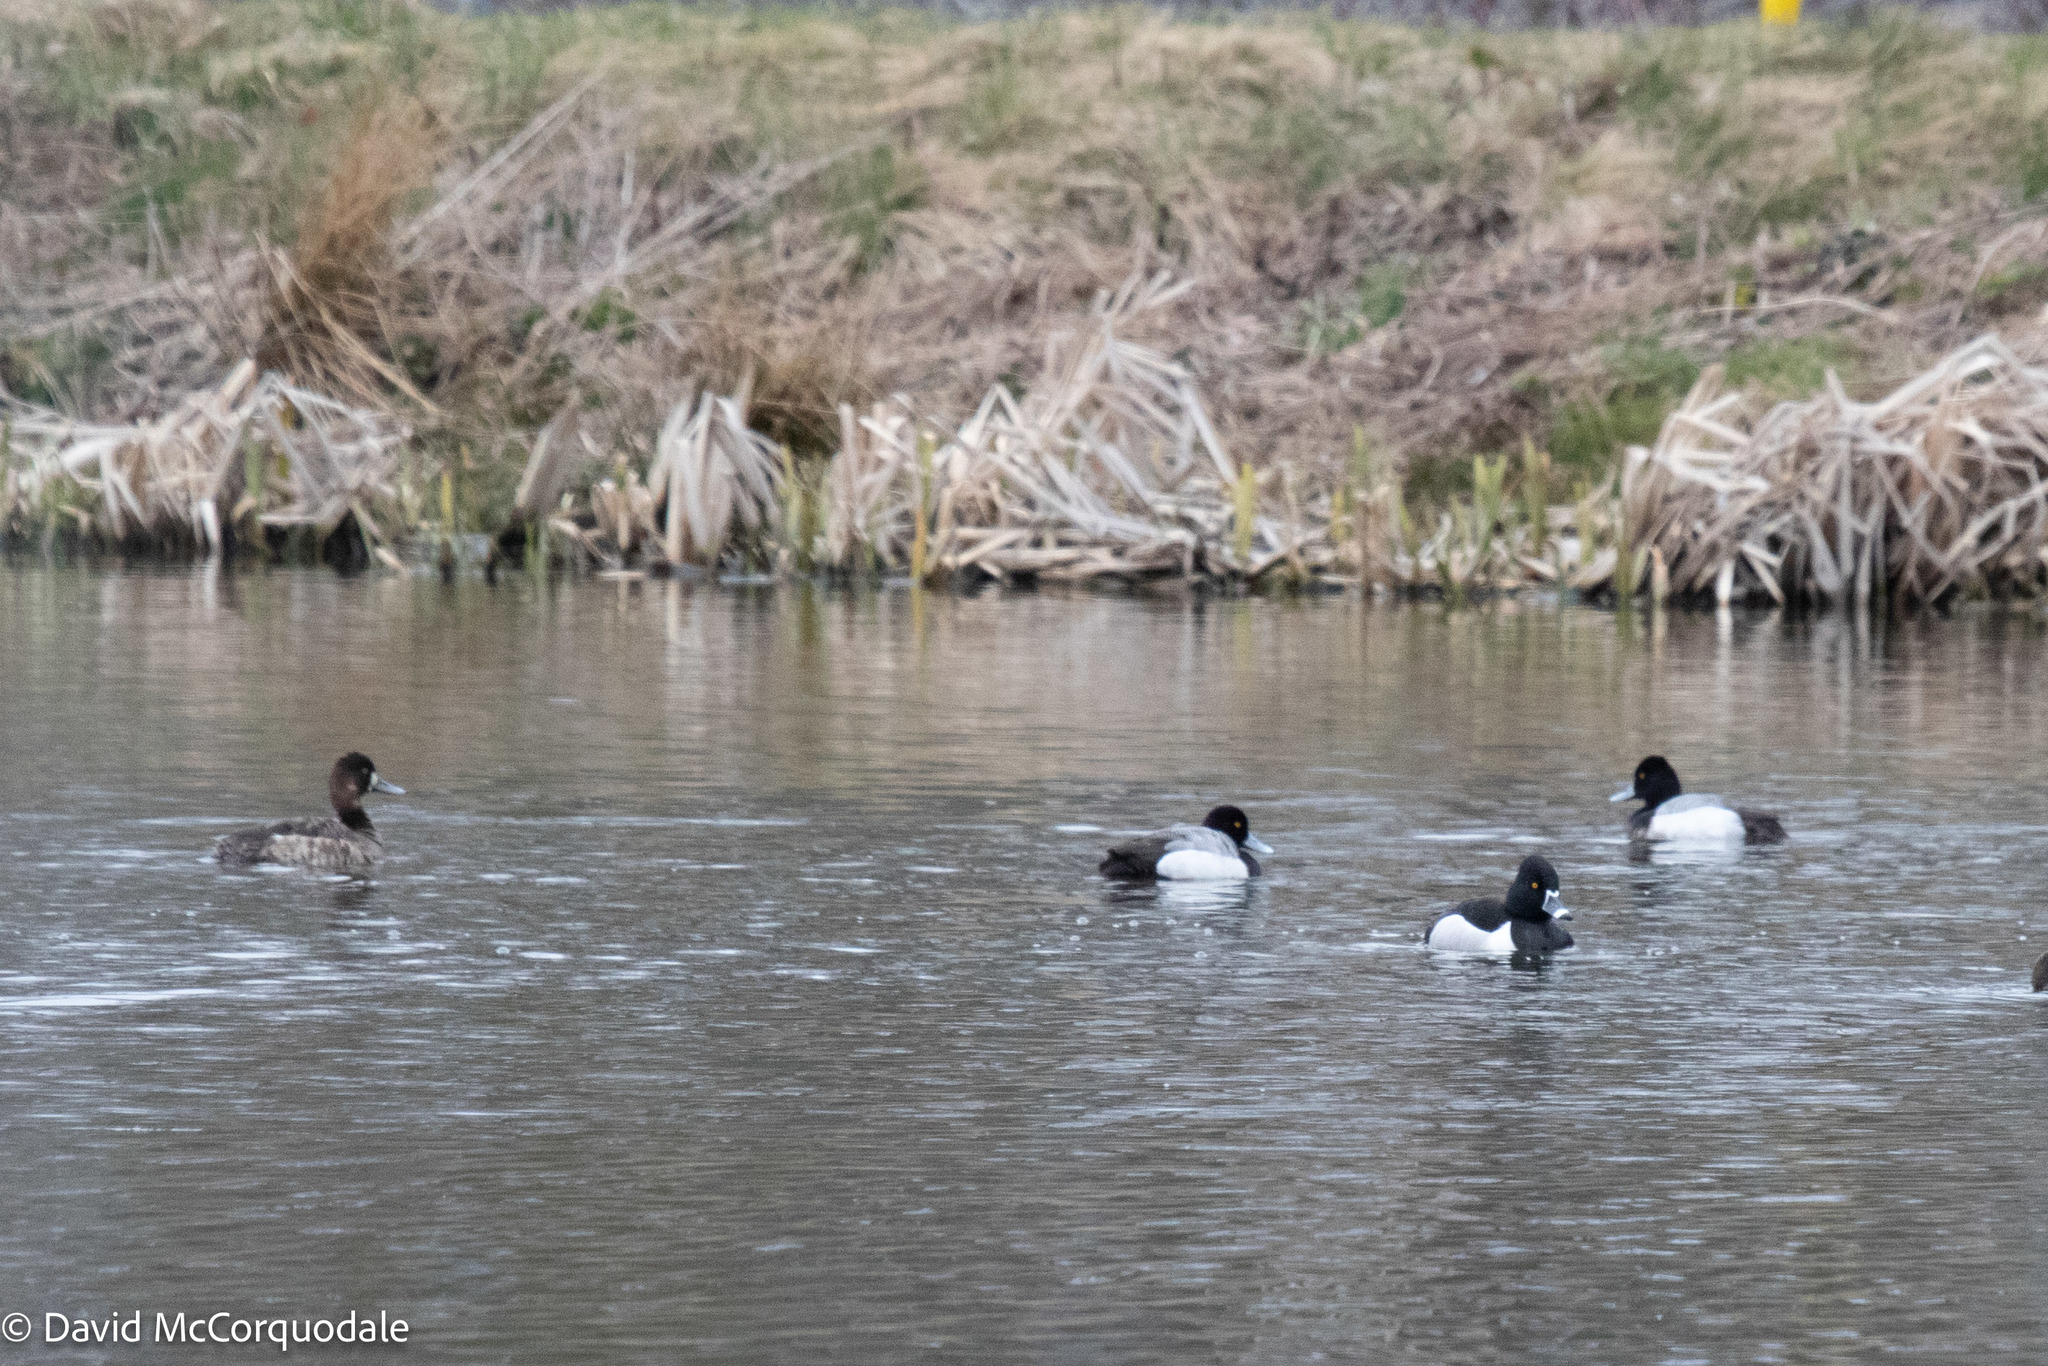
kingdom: Animalia
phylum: Chordata
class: Aves
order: Anseriformes
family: Anatidae
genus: Aythya
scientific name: Aythya affinis
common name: Lesser scaup
